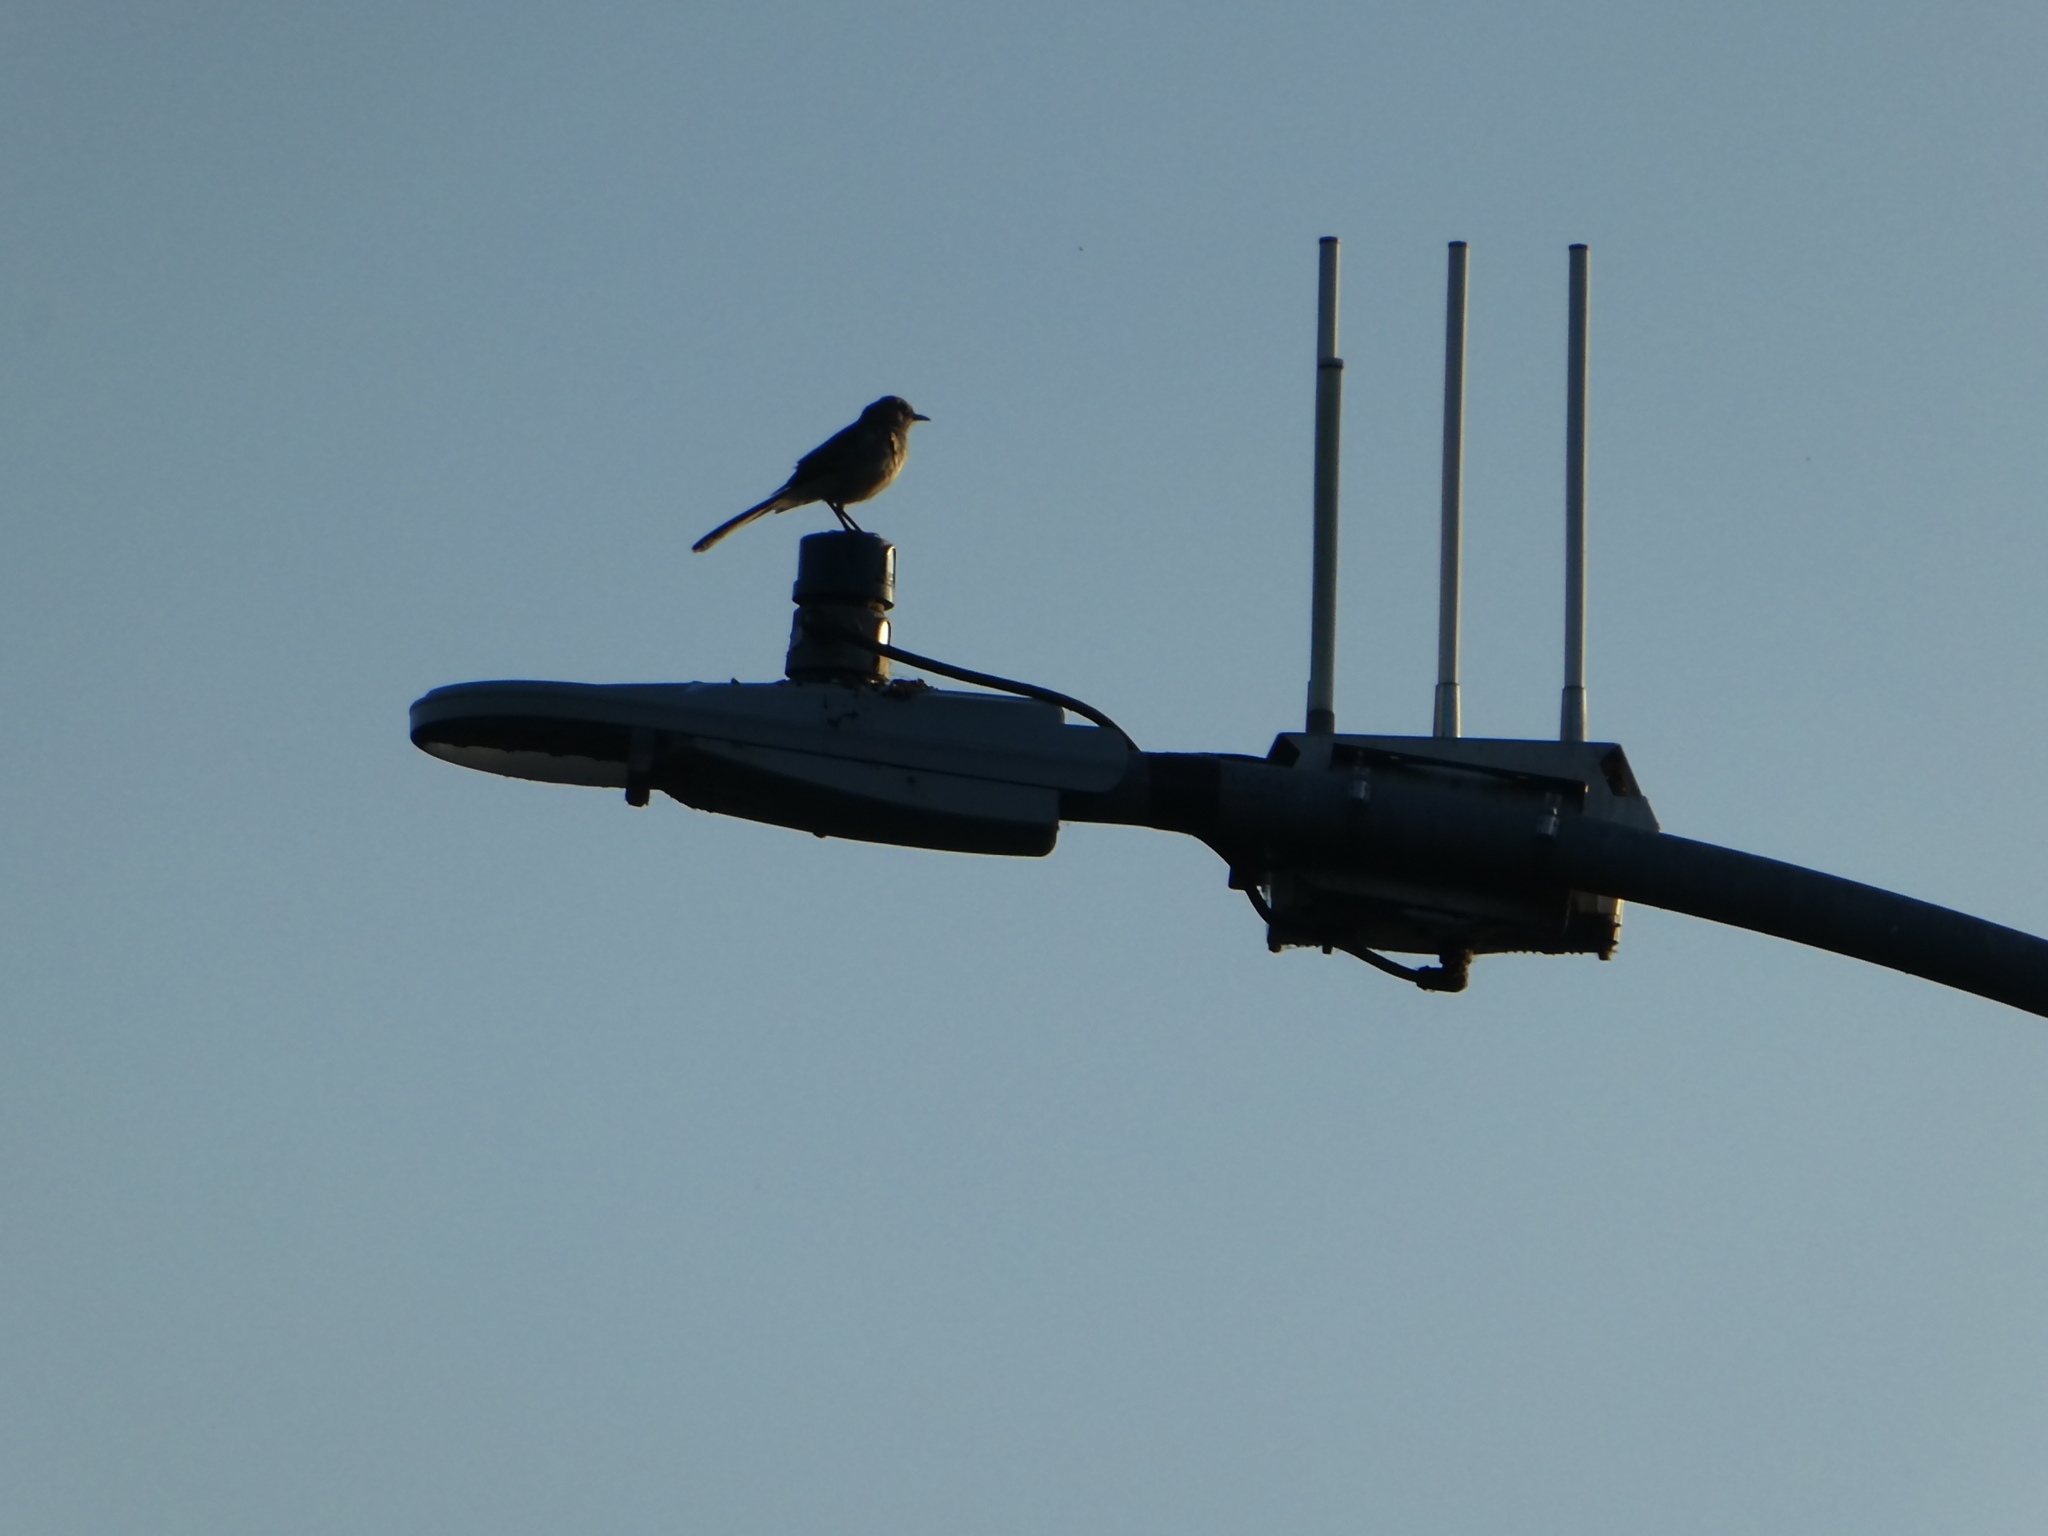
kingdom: Animalia
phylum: Chordata
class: Aves
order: Passeriformes
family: Mimidae
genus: Mimus
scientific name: Mimus polyglottos
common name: Northern mockingbird
